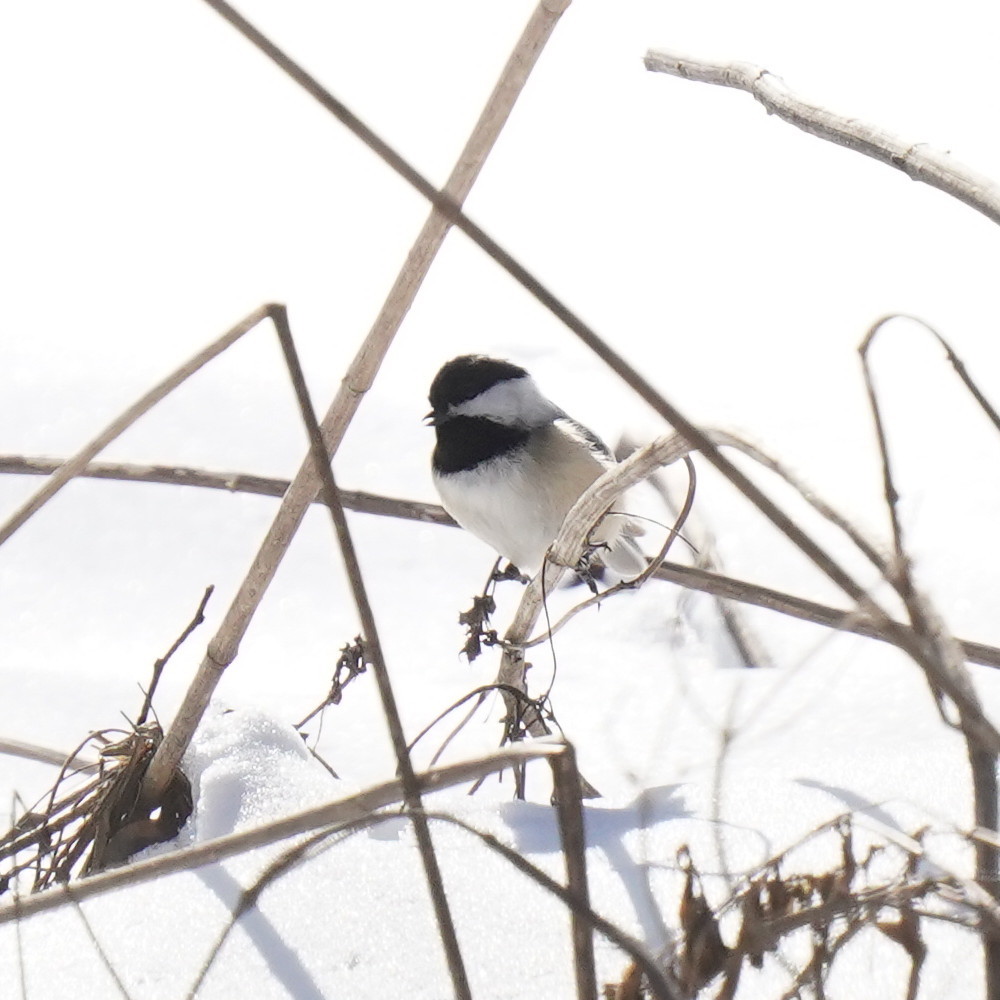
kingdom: Animalia
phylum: Chordata
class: Aves
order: Passeriformes
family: Paridae
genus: Poecile
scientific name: Poecile atricapillus
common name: Black-capped chickadee
